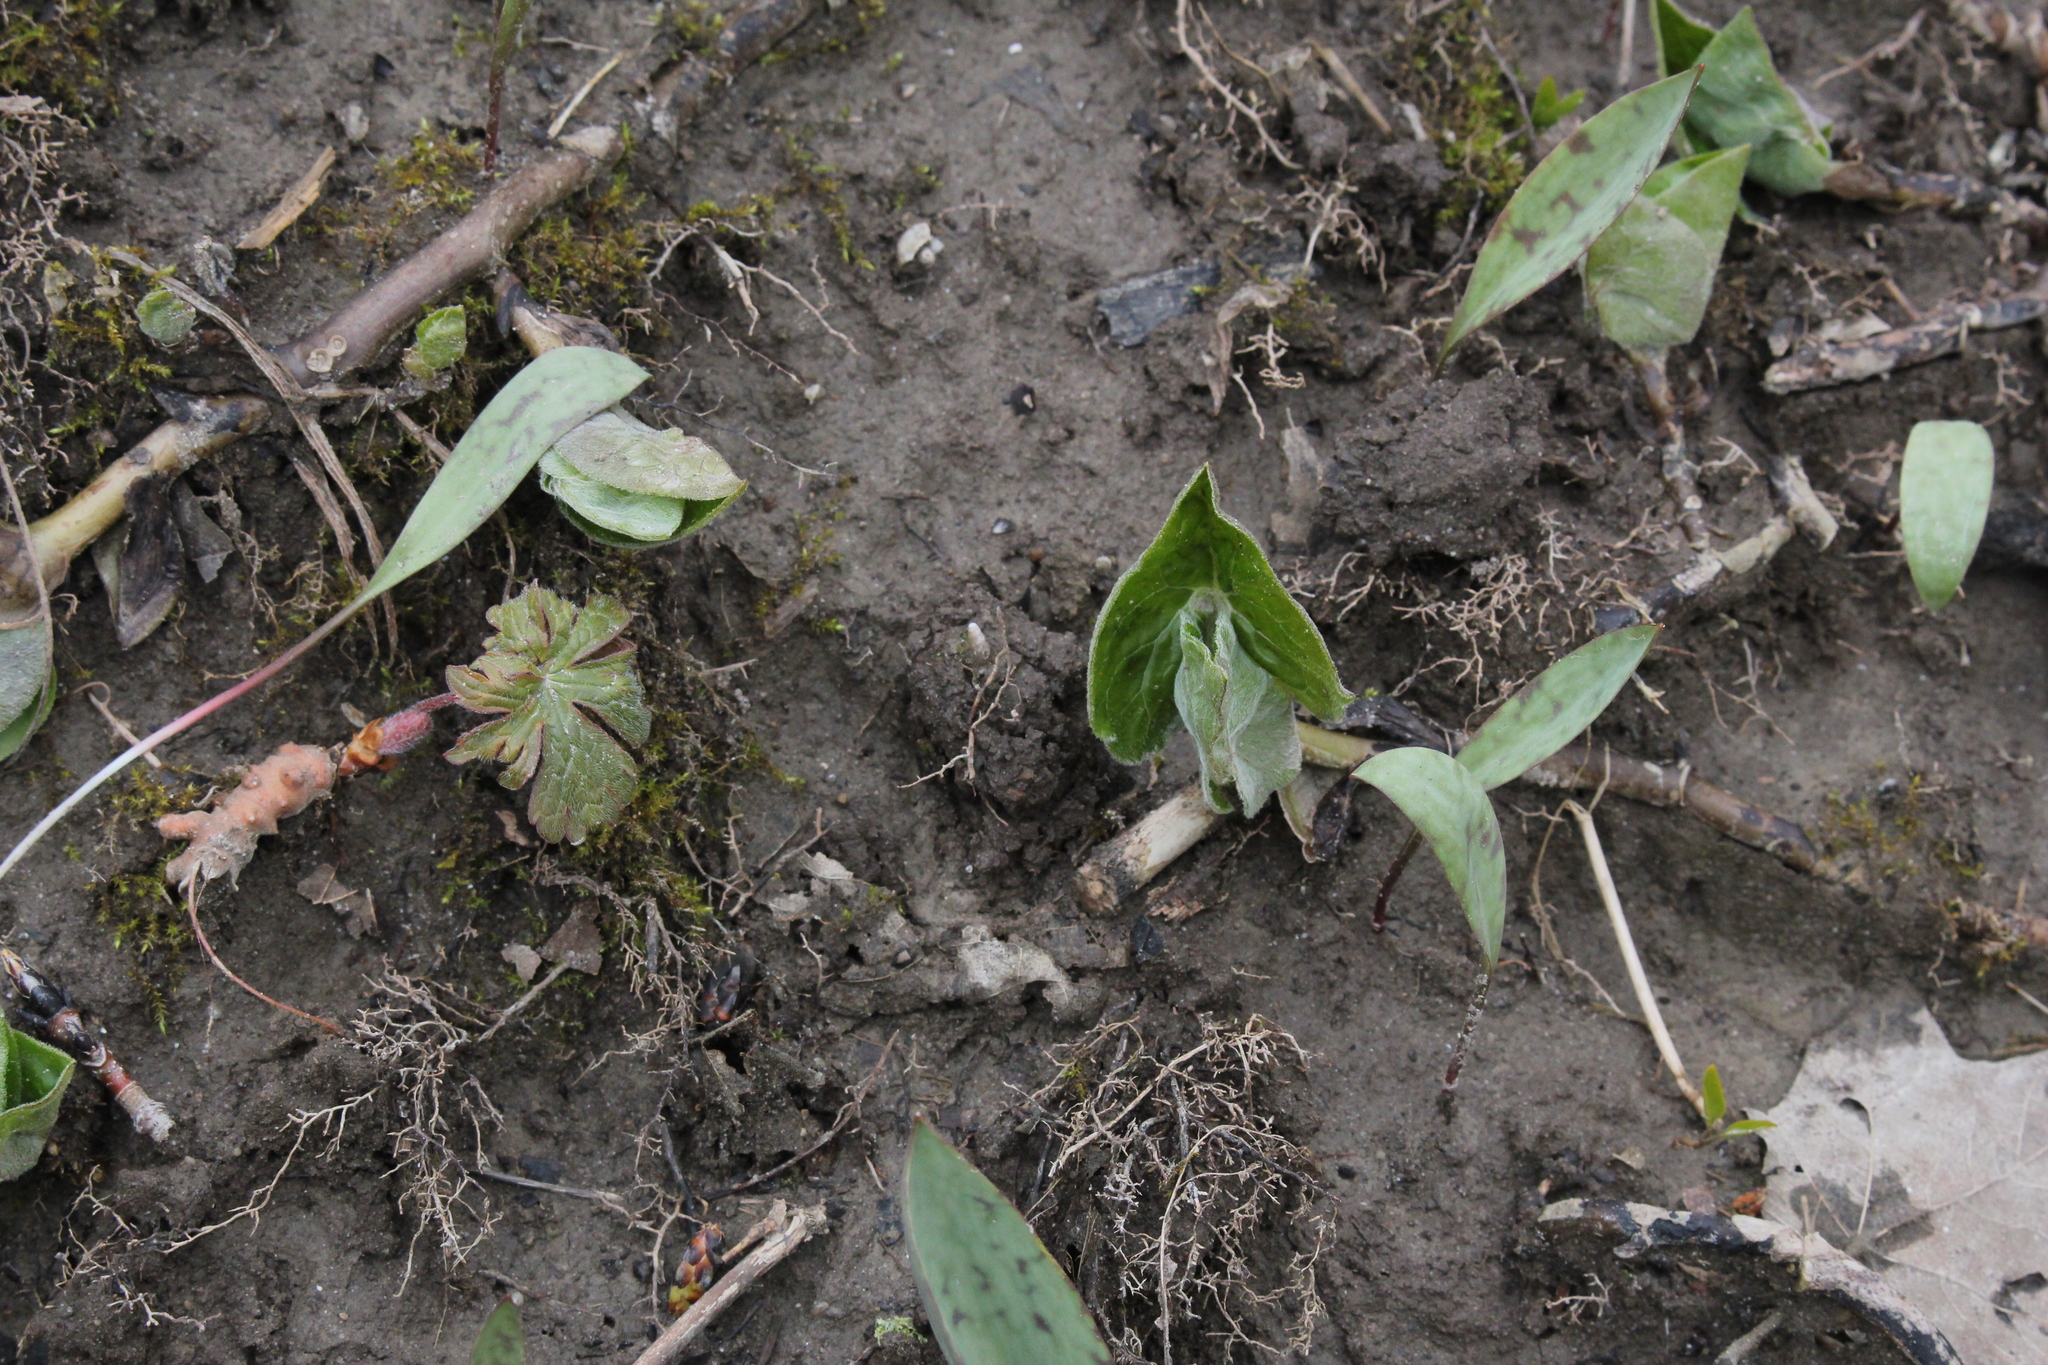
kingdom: Plantae
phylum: Tracheophyta
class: Magnoliopsida
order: Piperales
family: Aristolochiaceae
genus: Asarum
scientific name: Asarum canadense
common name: Wild ginger
